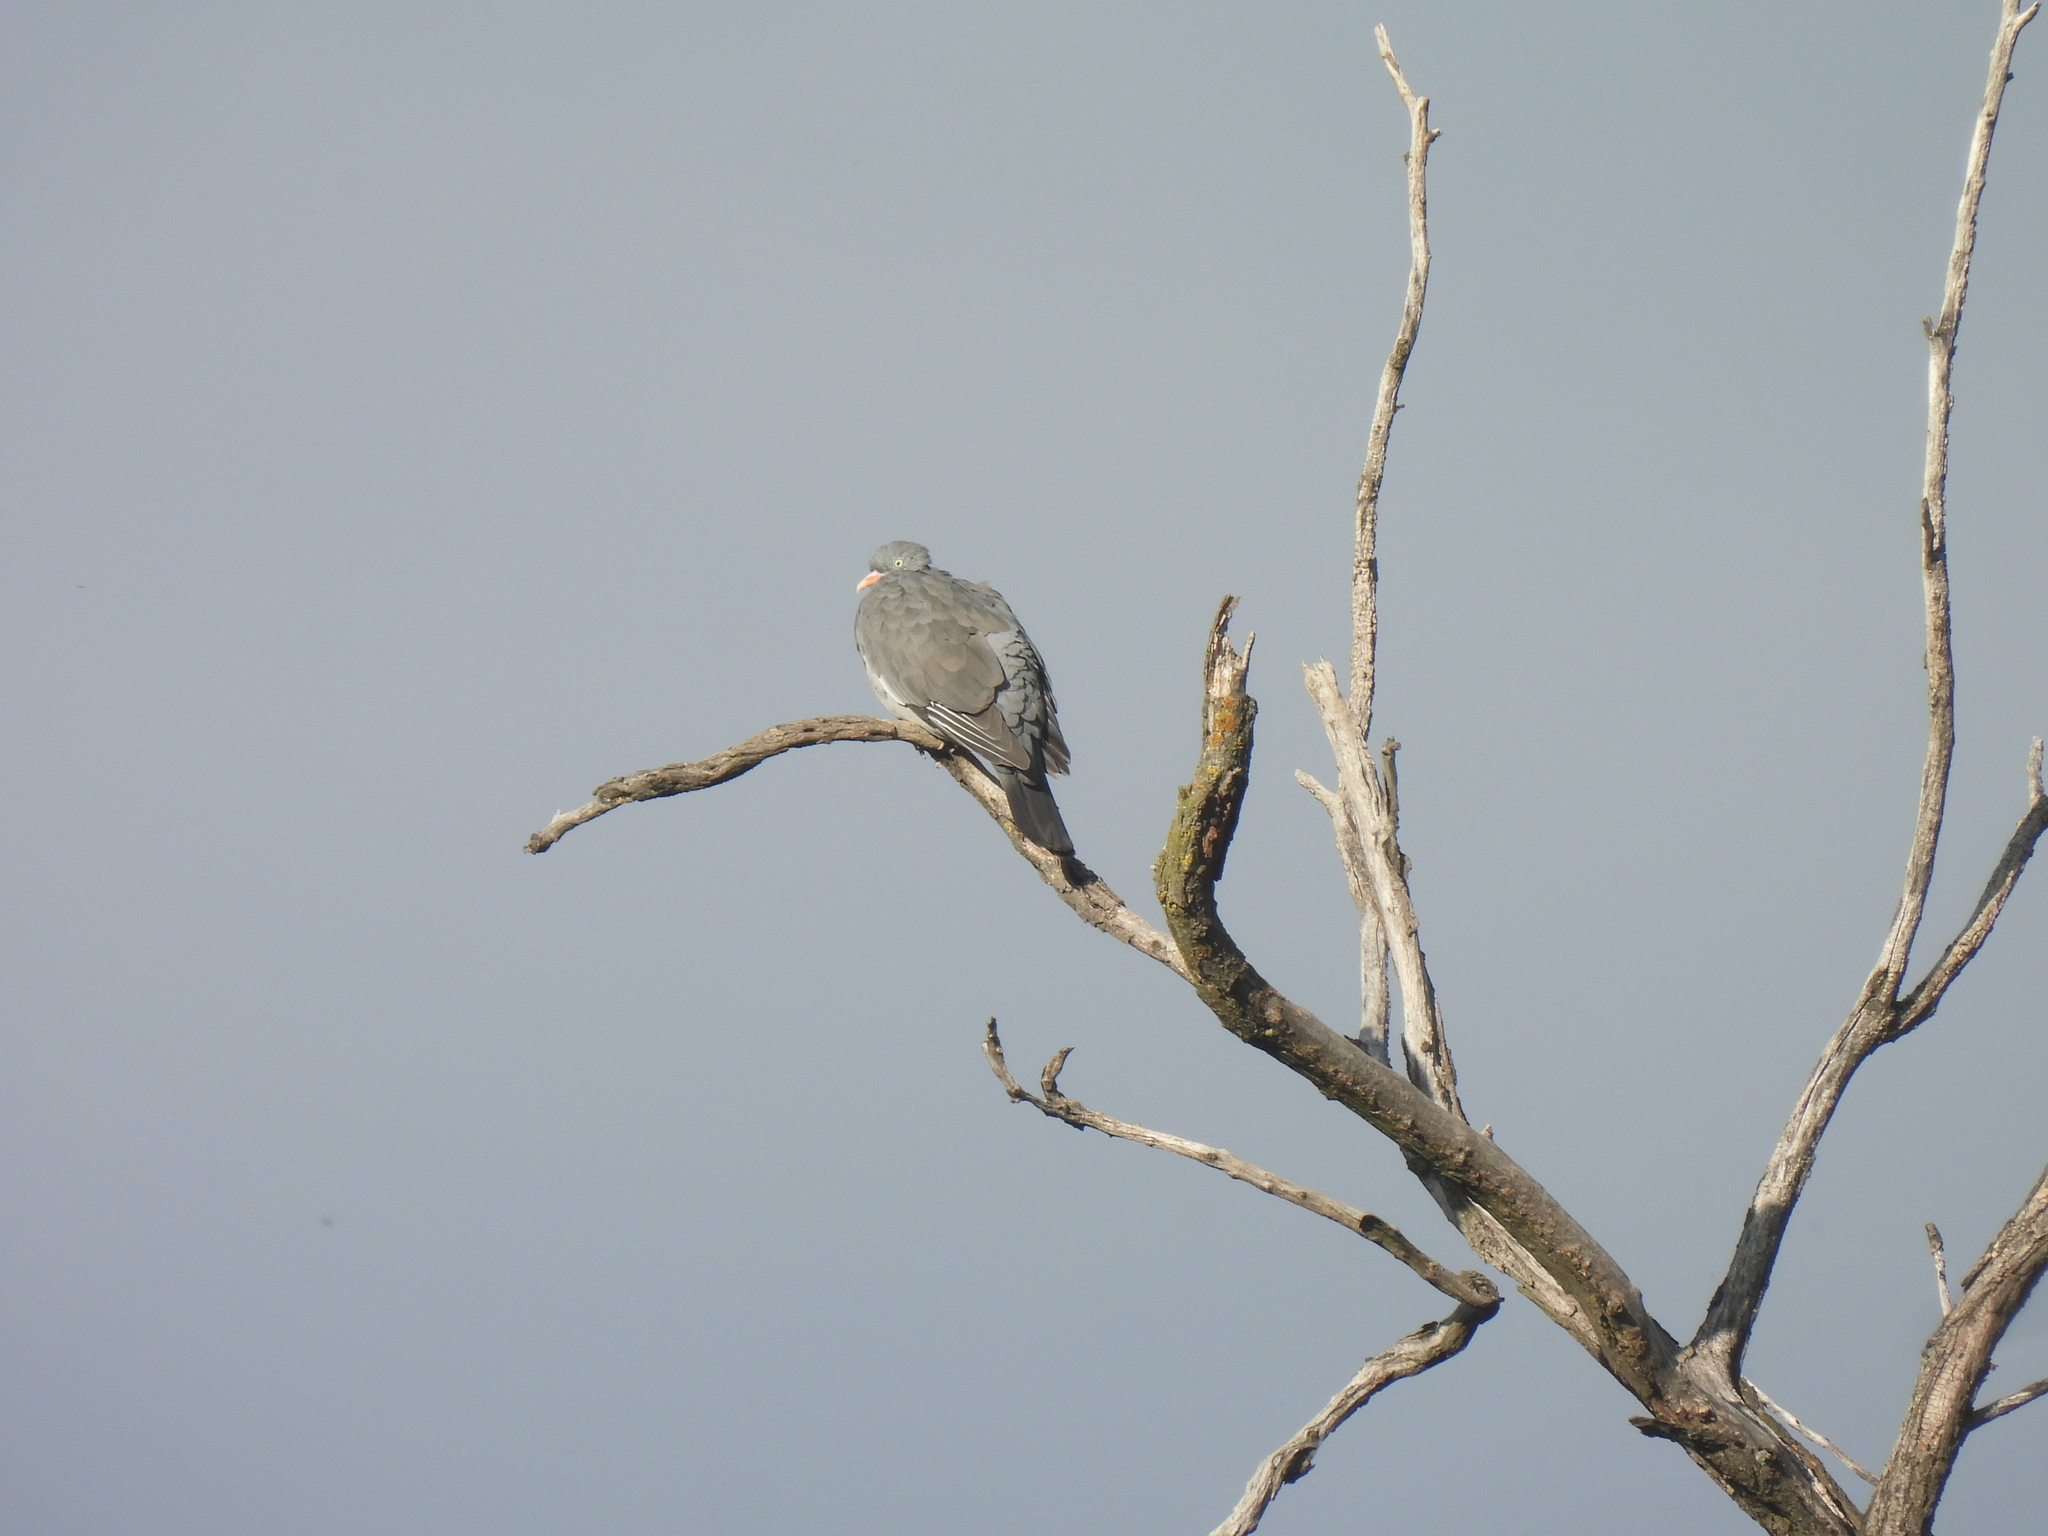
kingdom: Animalia
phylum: Chordata
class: Aves
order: Columbiformes
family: Columbidae
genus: Columba
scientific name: Columba palumbus
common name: Common wood pigeon
